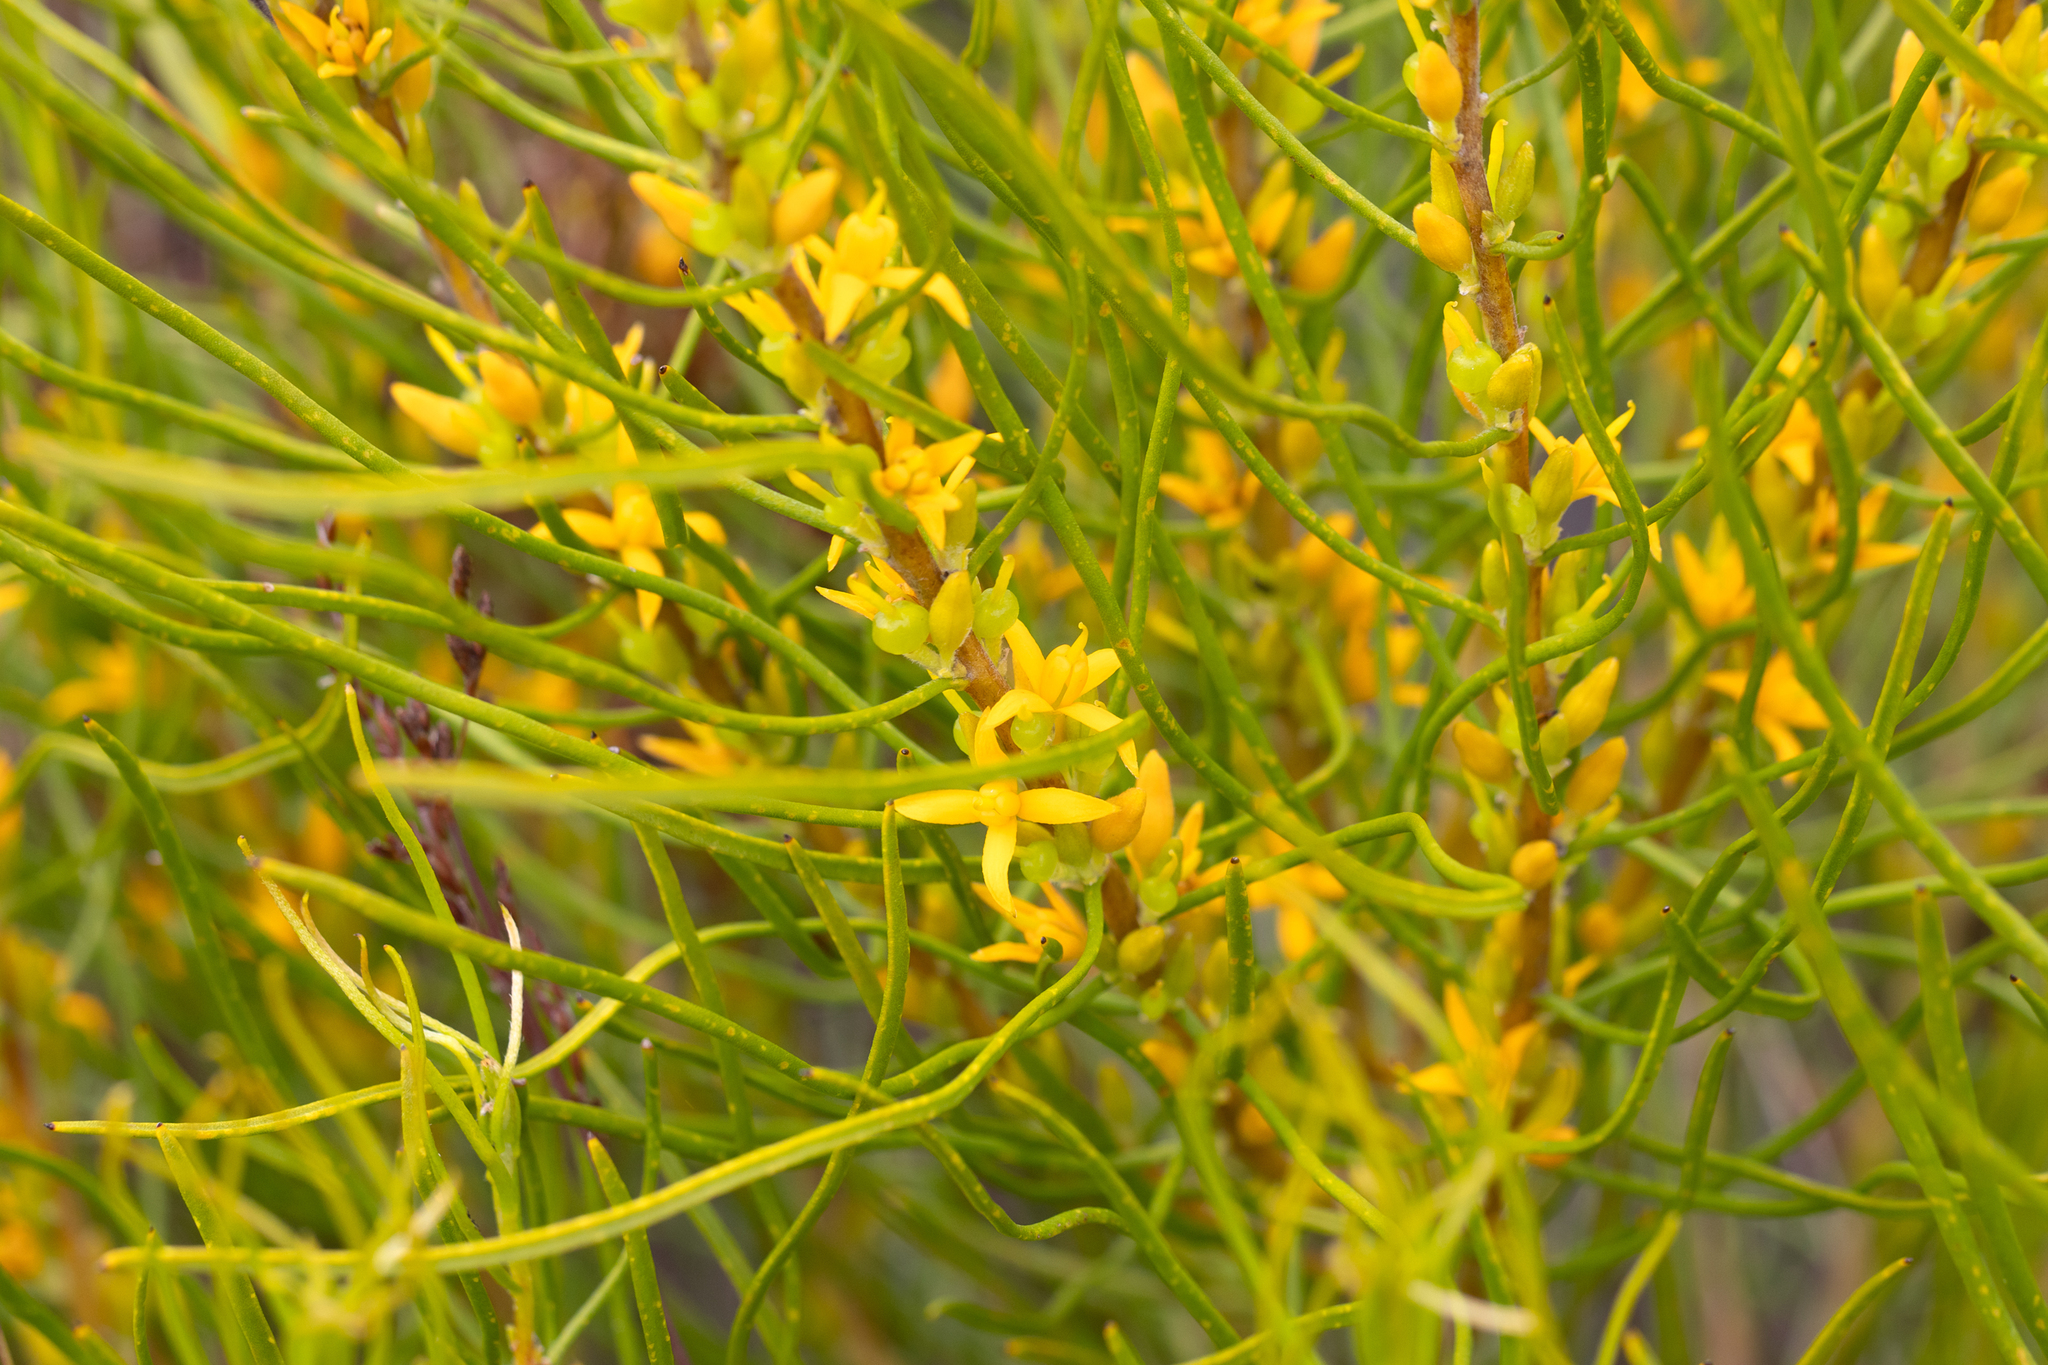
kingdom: Plantae
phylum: Tracheophyta
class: Magnoliopsida
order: Proteales
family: Proteaceae
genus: Acidonia
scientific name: Acidonia microcarpa
